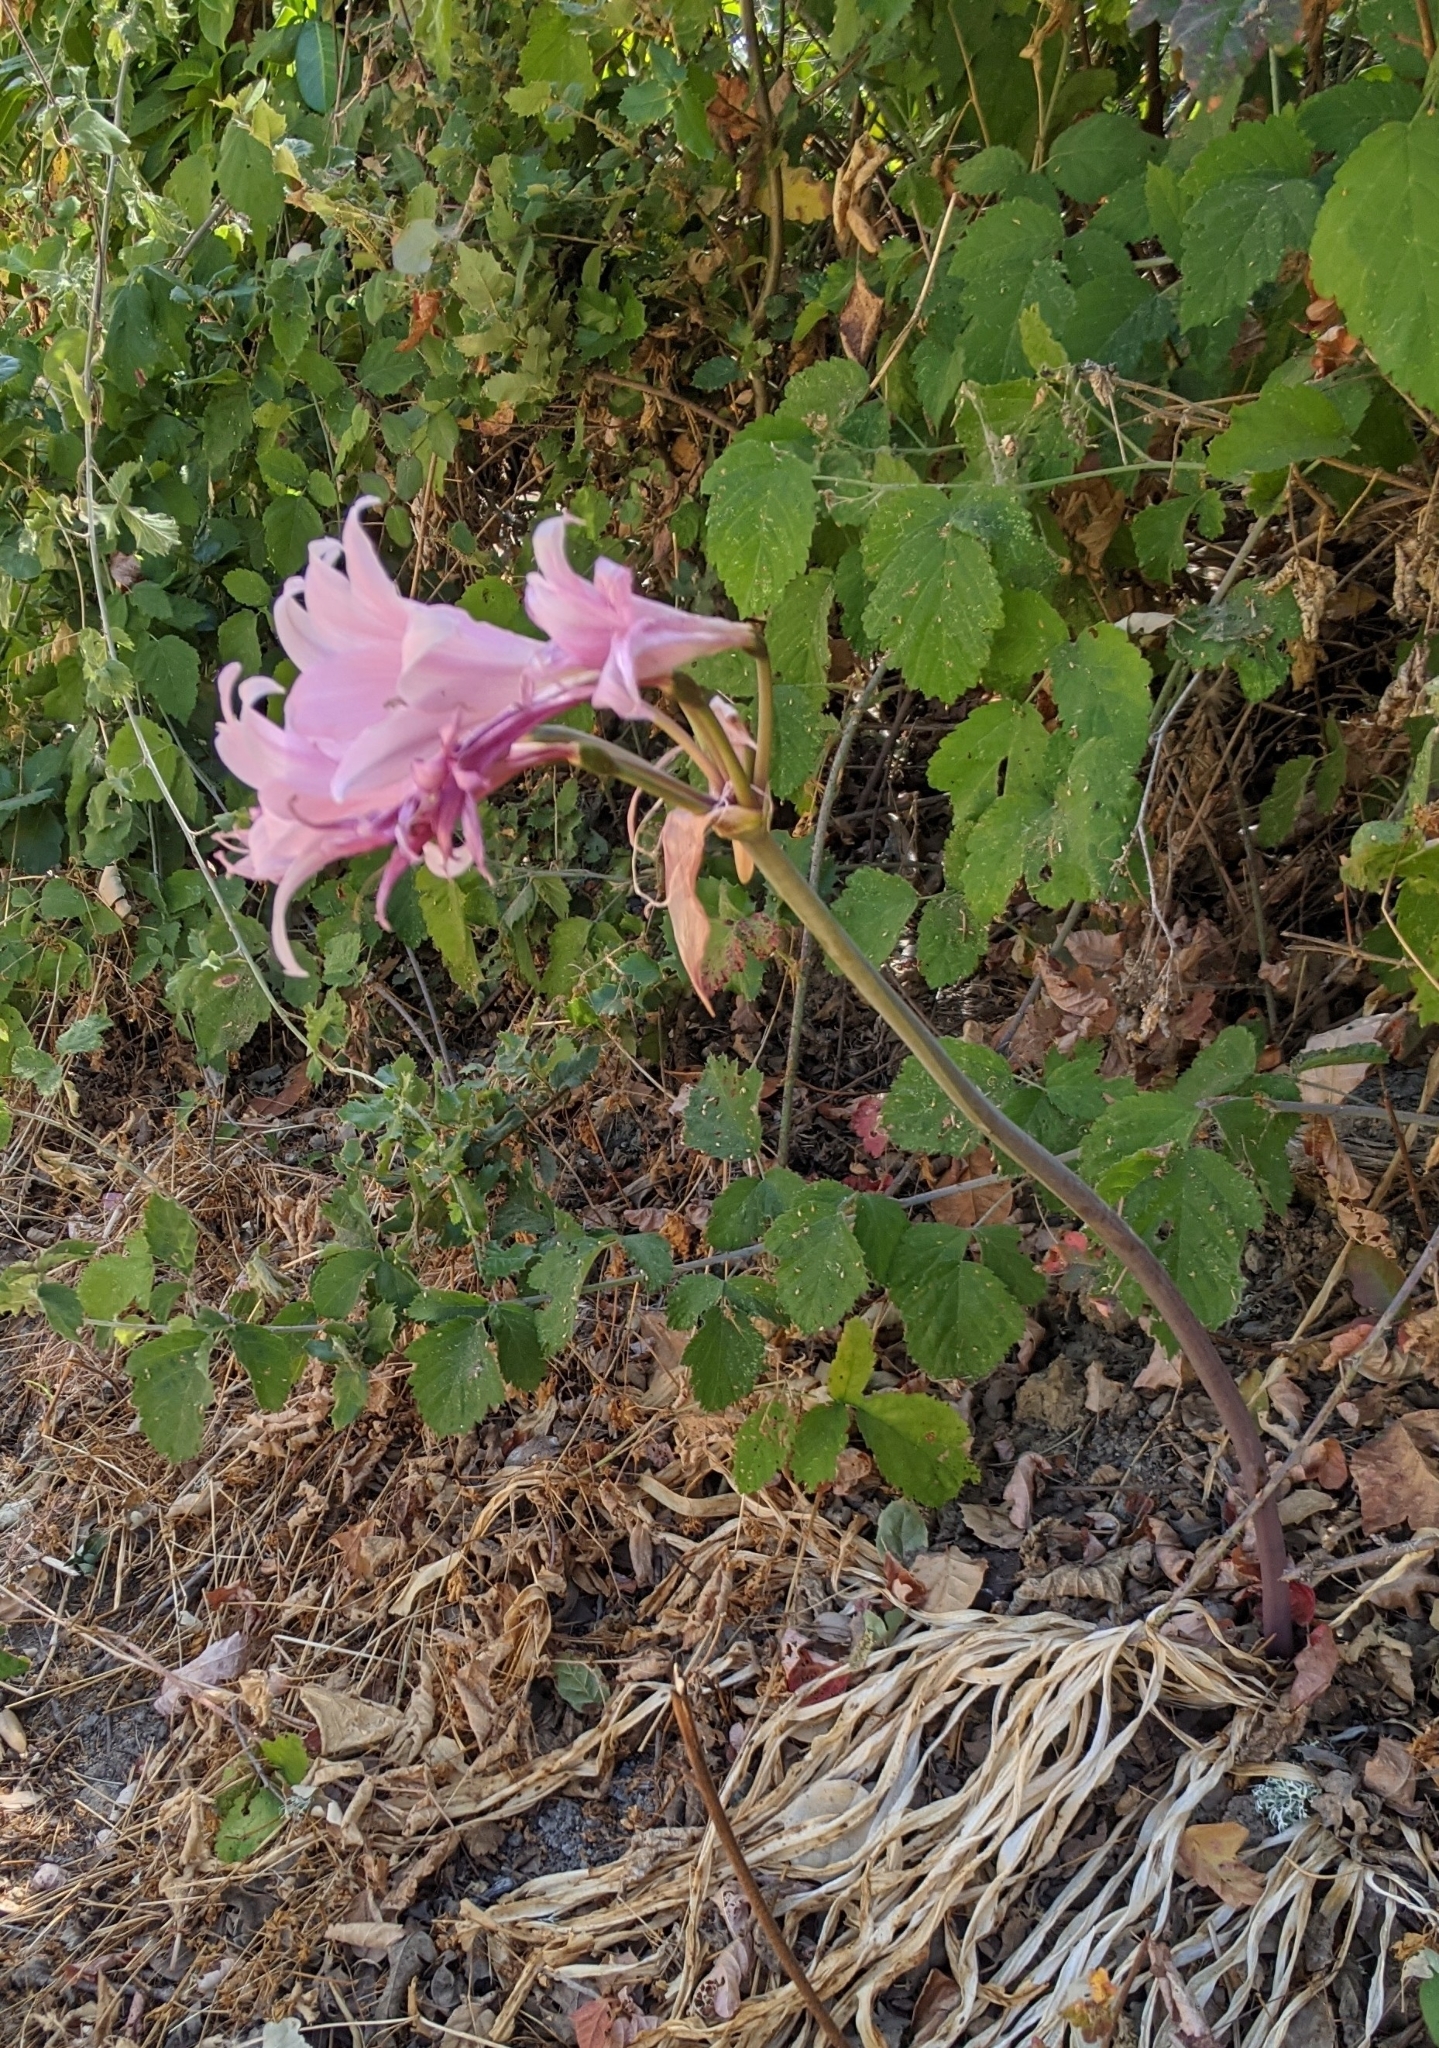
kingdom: Plantae
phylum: Tracheophyta
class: Liliopsida
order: Asparagales
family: Amaryllidaceae
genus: Amaryllis
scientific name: Amaryllis belladonna
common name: Jersey lily
